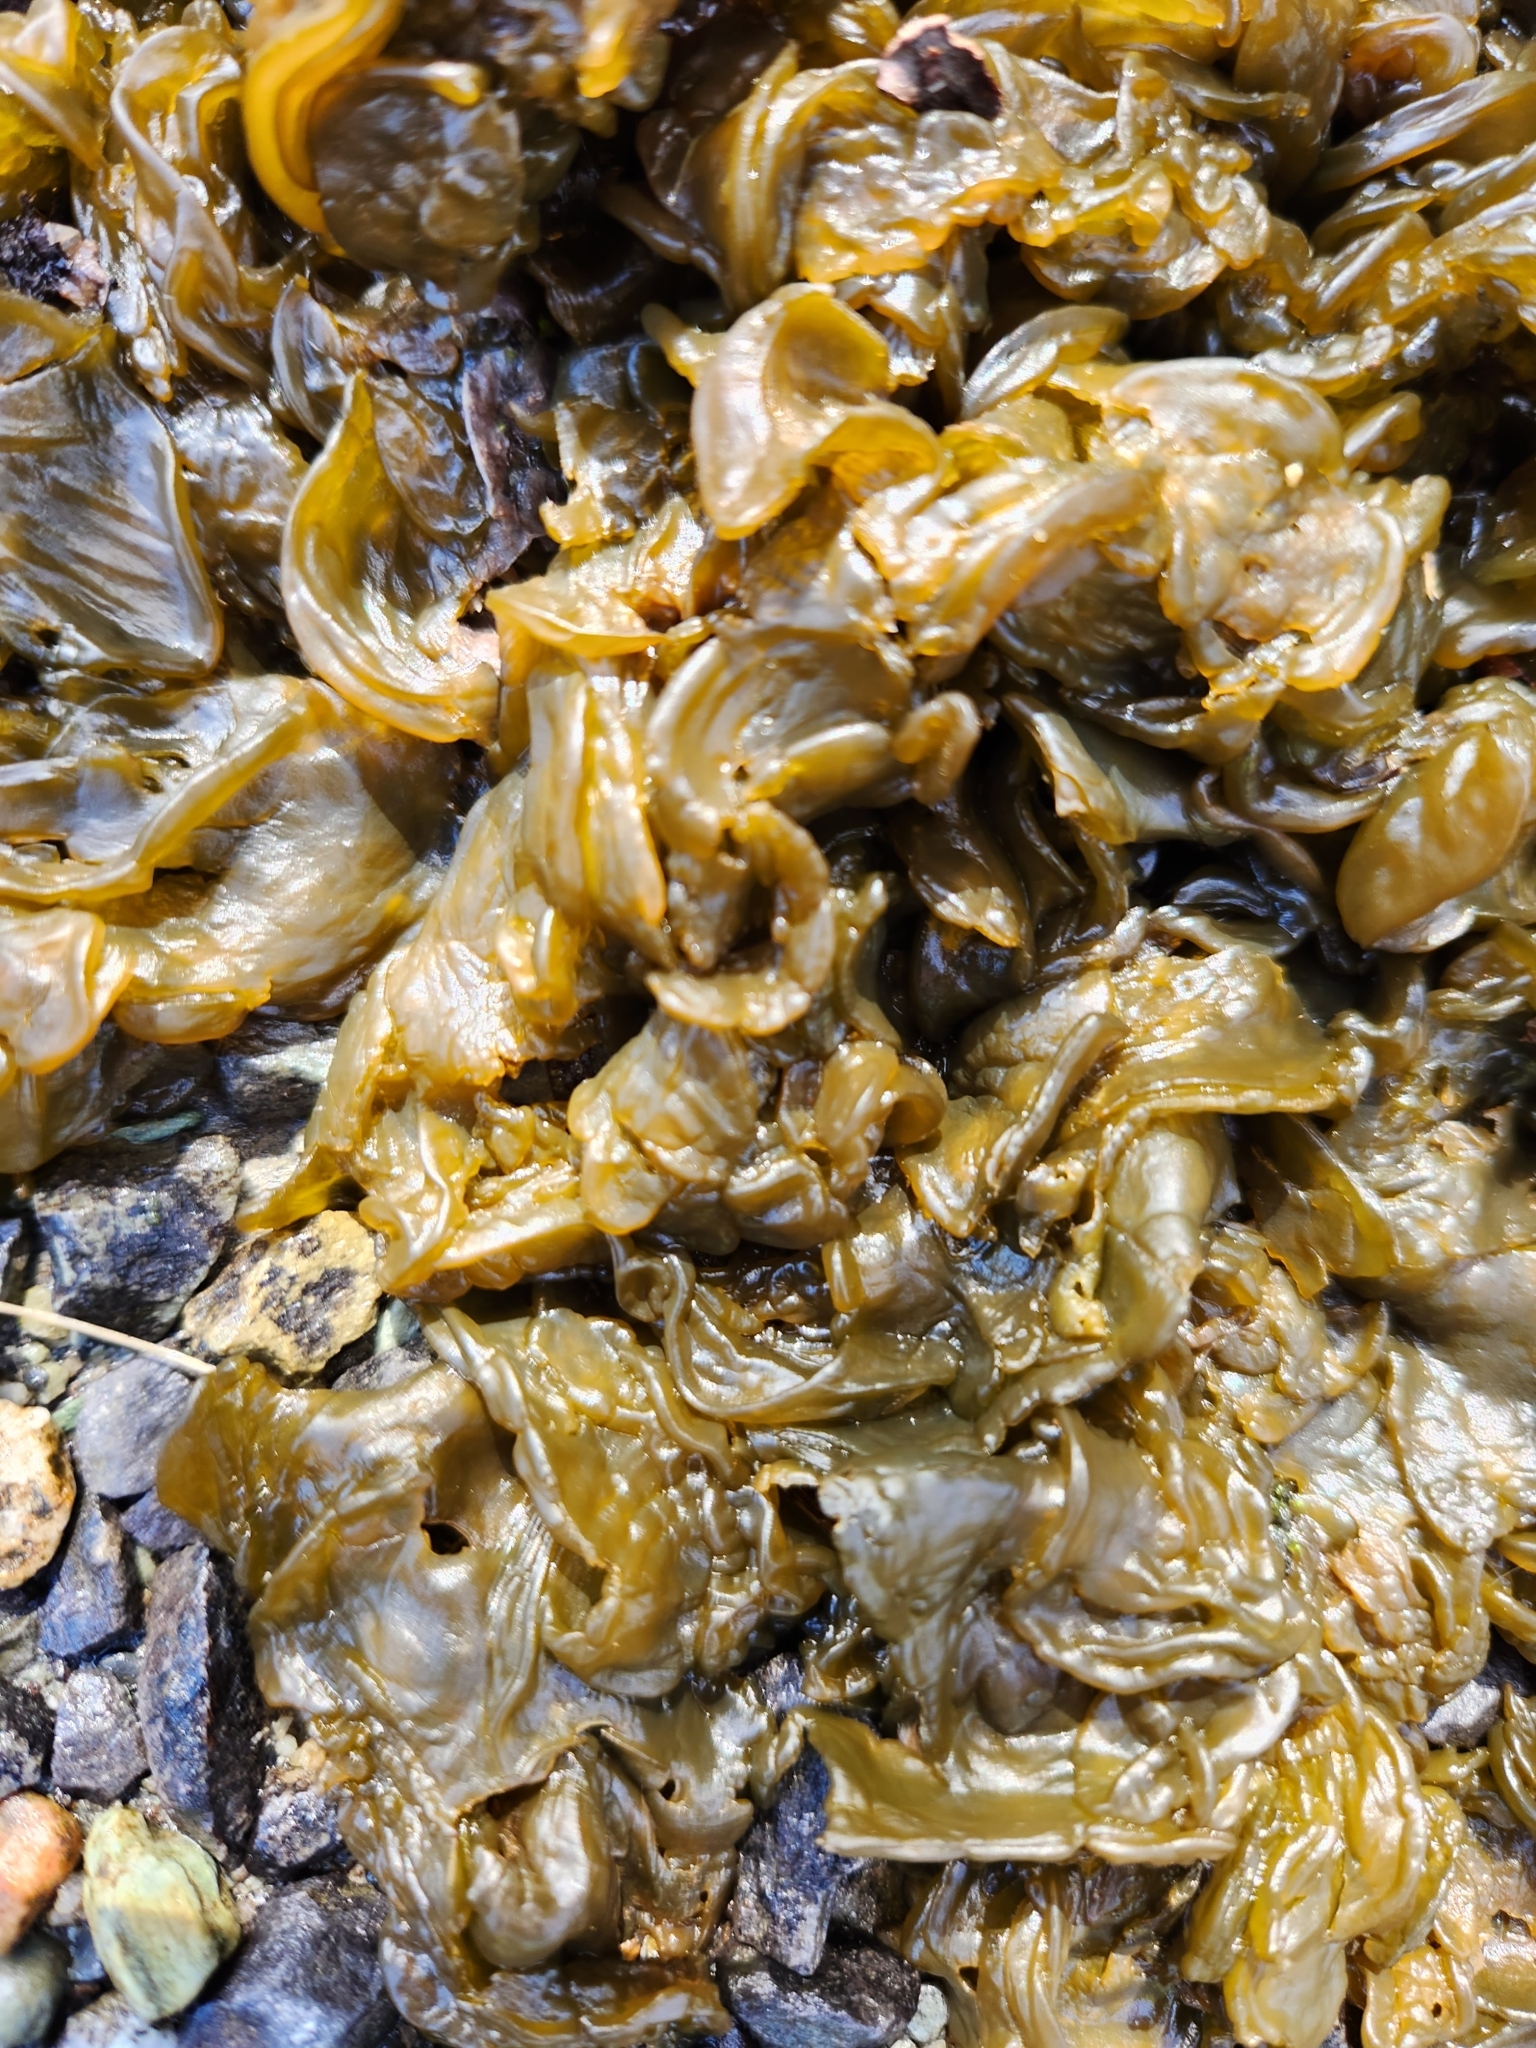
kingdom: Bacteria
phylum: Cyanobacteria
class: Cyanobacteriia
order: Cyanobacteriales
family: Nostocaceae
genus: Nostoc
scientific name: Nostoc commune
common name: Star jelly
